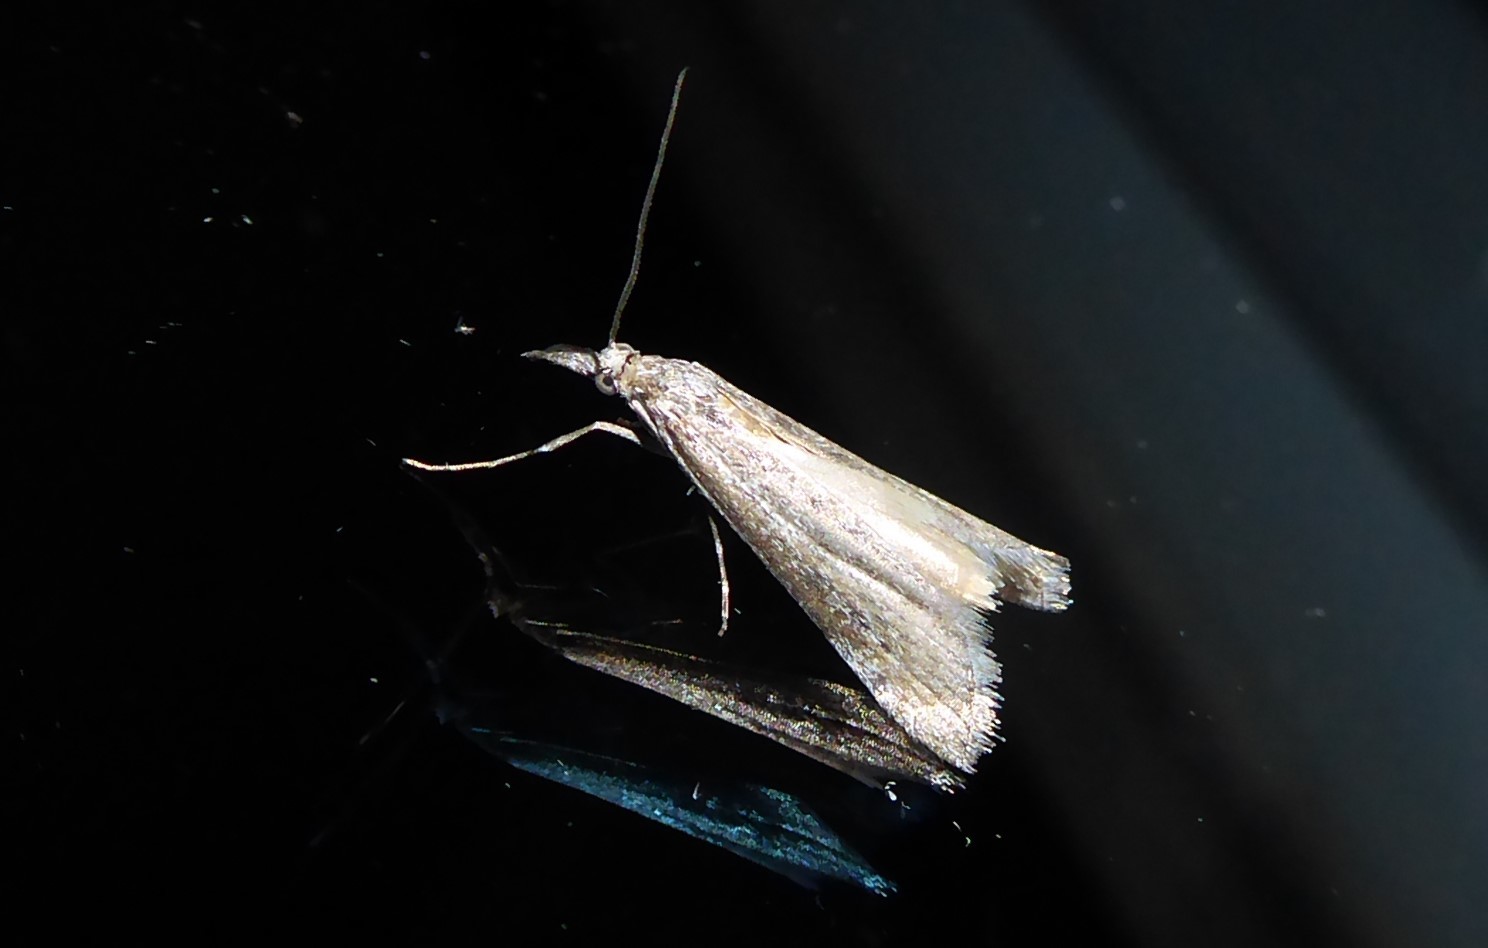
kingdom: Animalia
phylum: Arthropoda
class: Insecta
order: Lepidoptera
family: Crambidae
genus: Orocrambus
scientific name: Orocrambus cyclopicus
